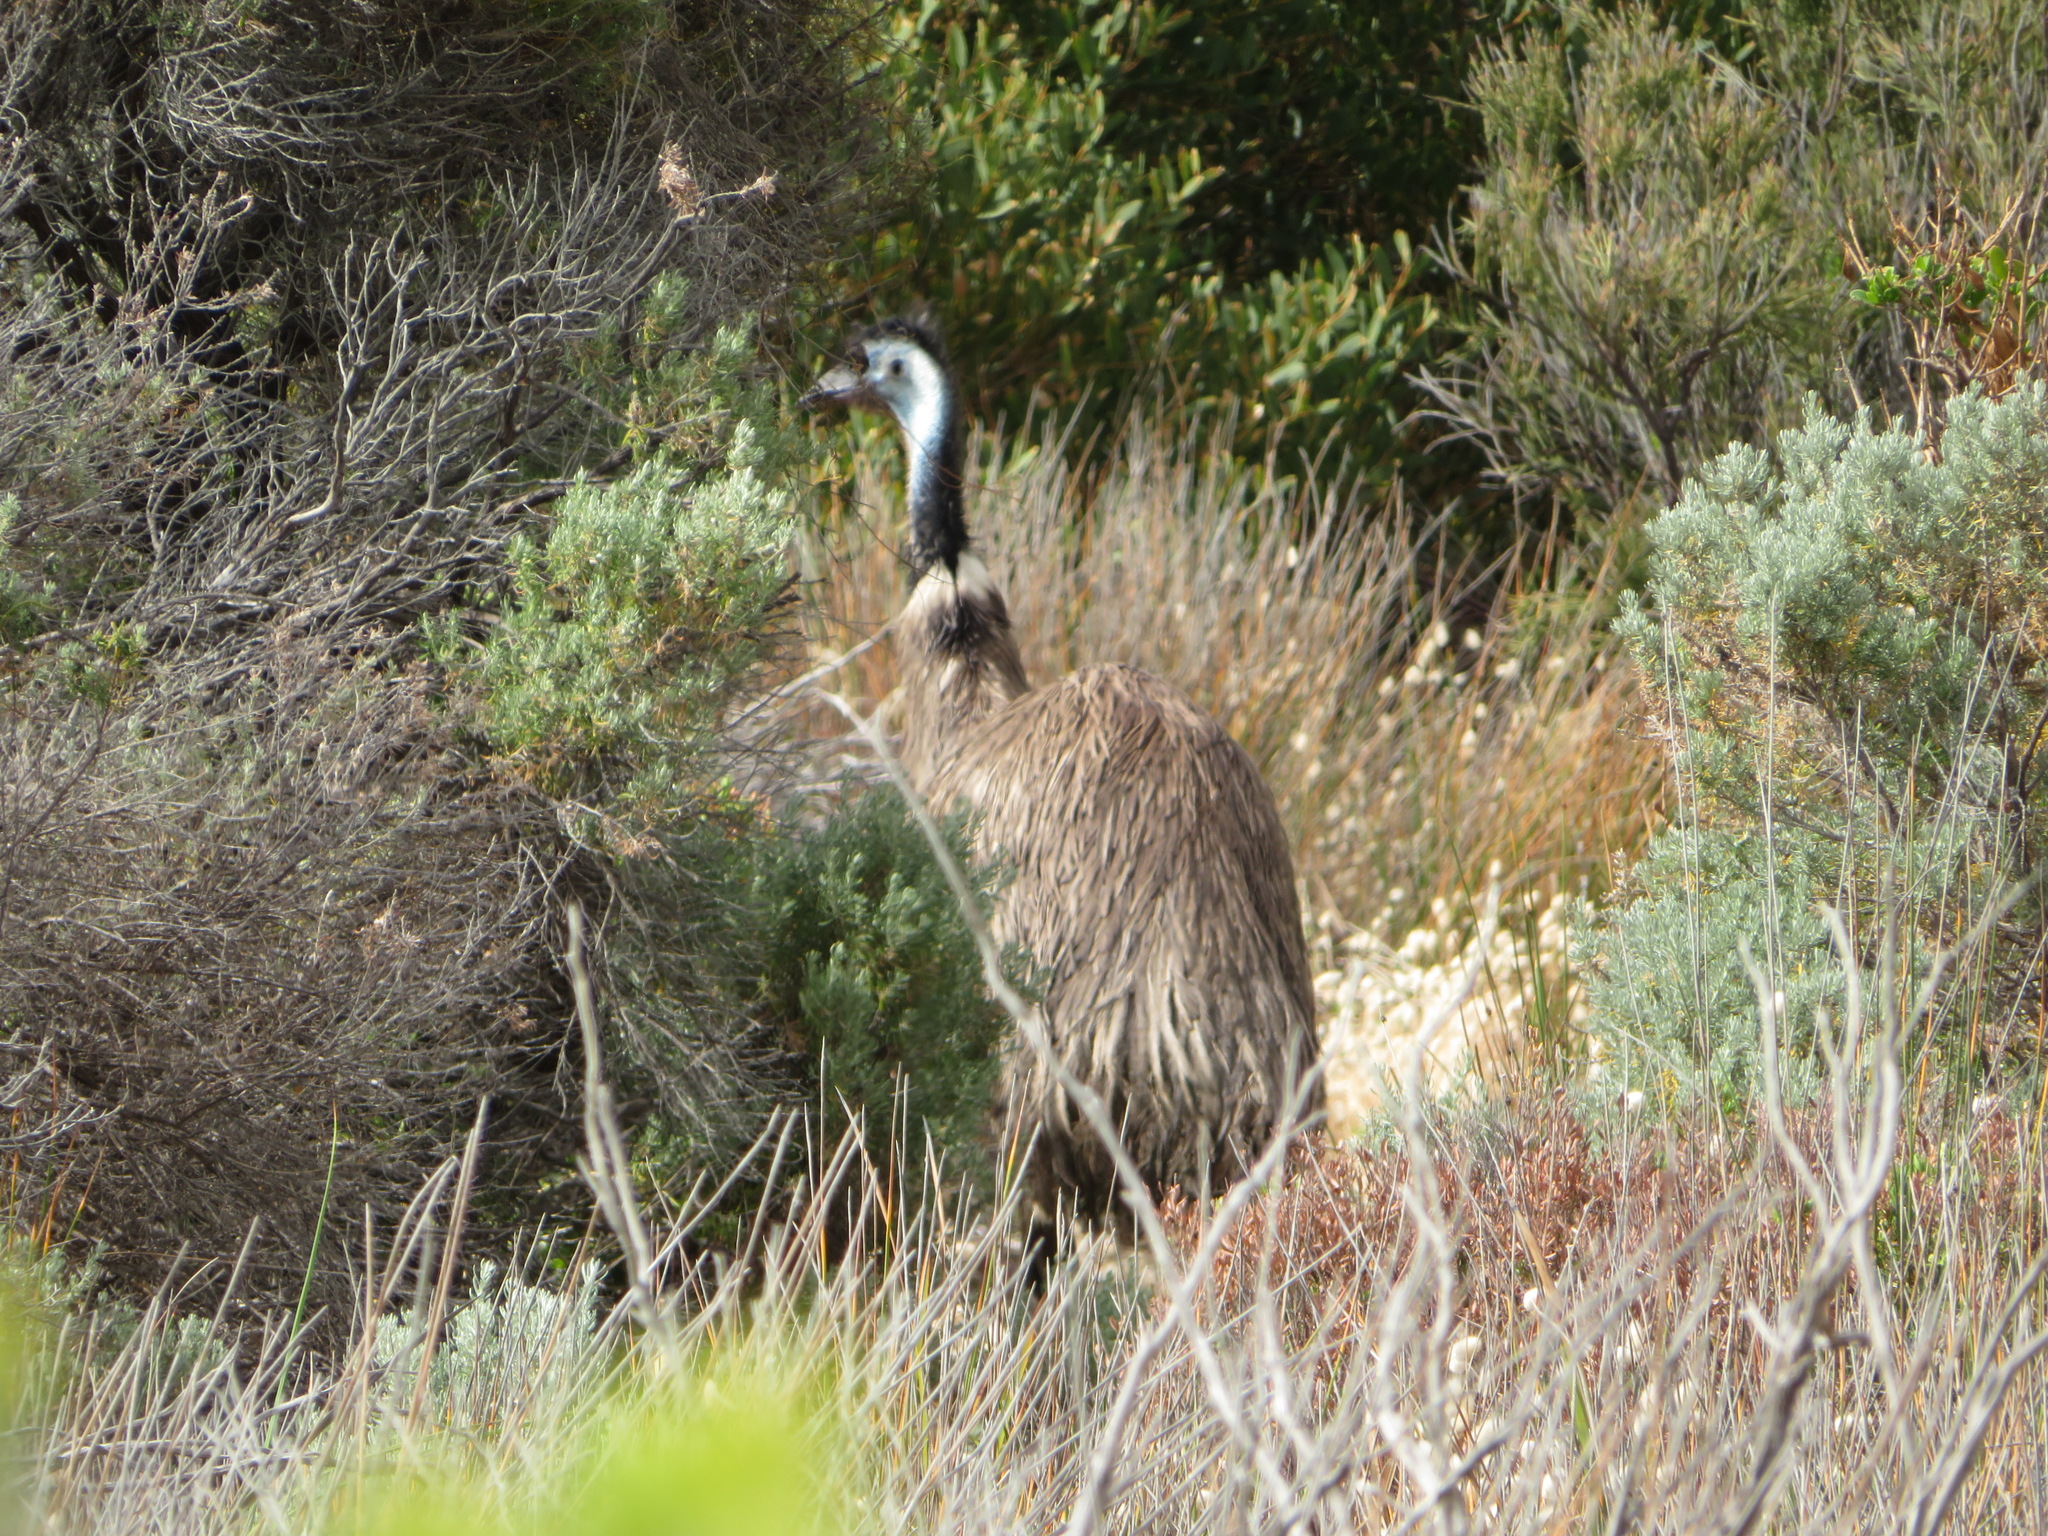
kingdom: Animalia
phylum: Chordata
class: Aves
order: Casuariiformes
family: Dromaiidae
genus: Dromaius
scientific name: Dromaius novaehollandiae
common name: Emu
